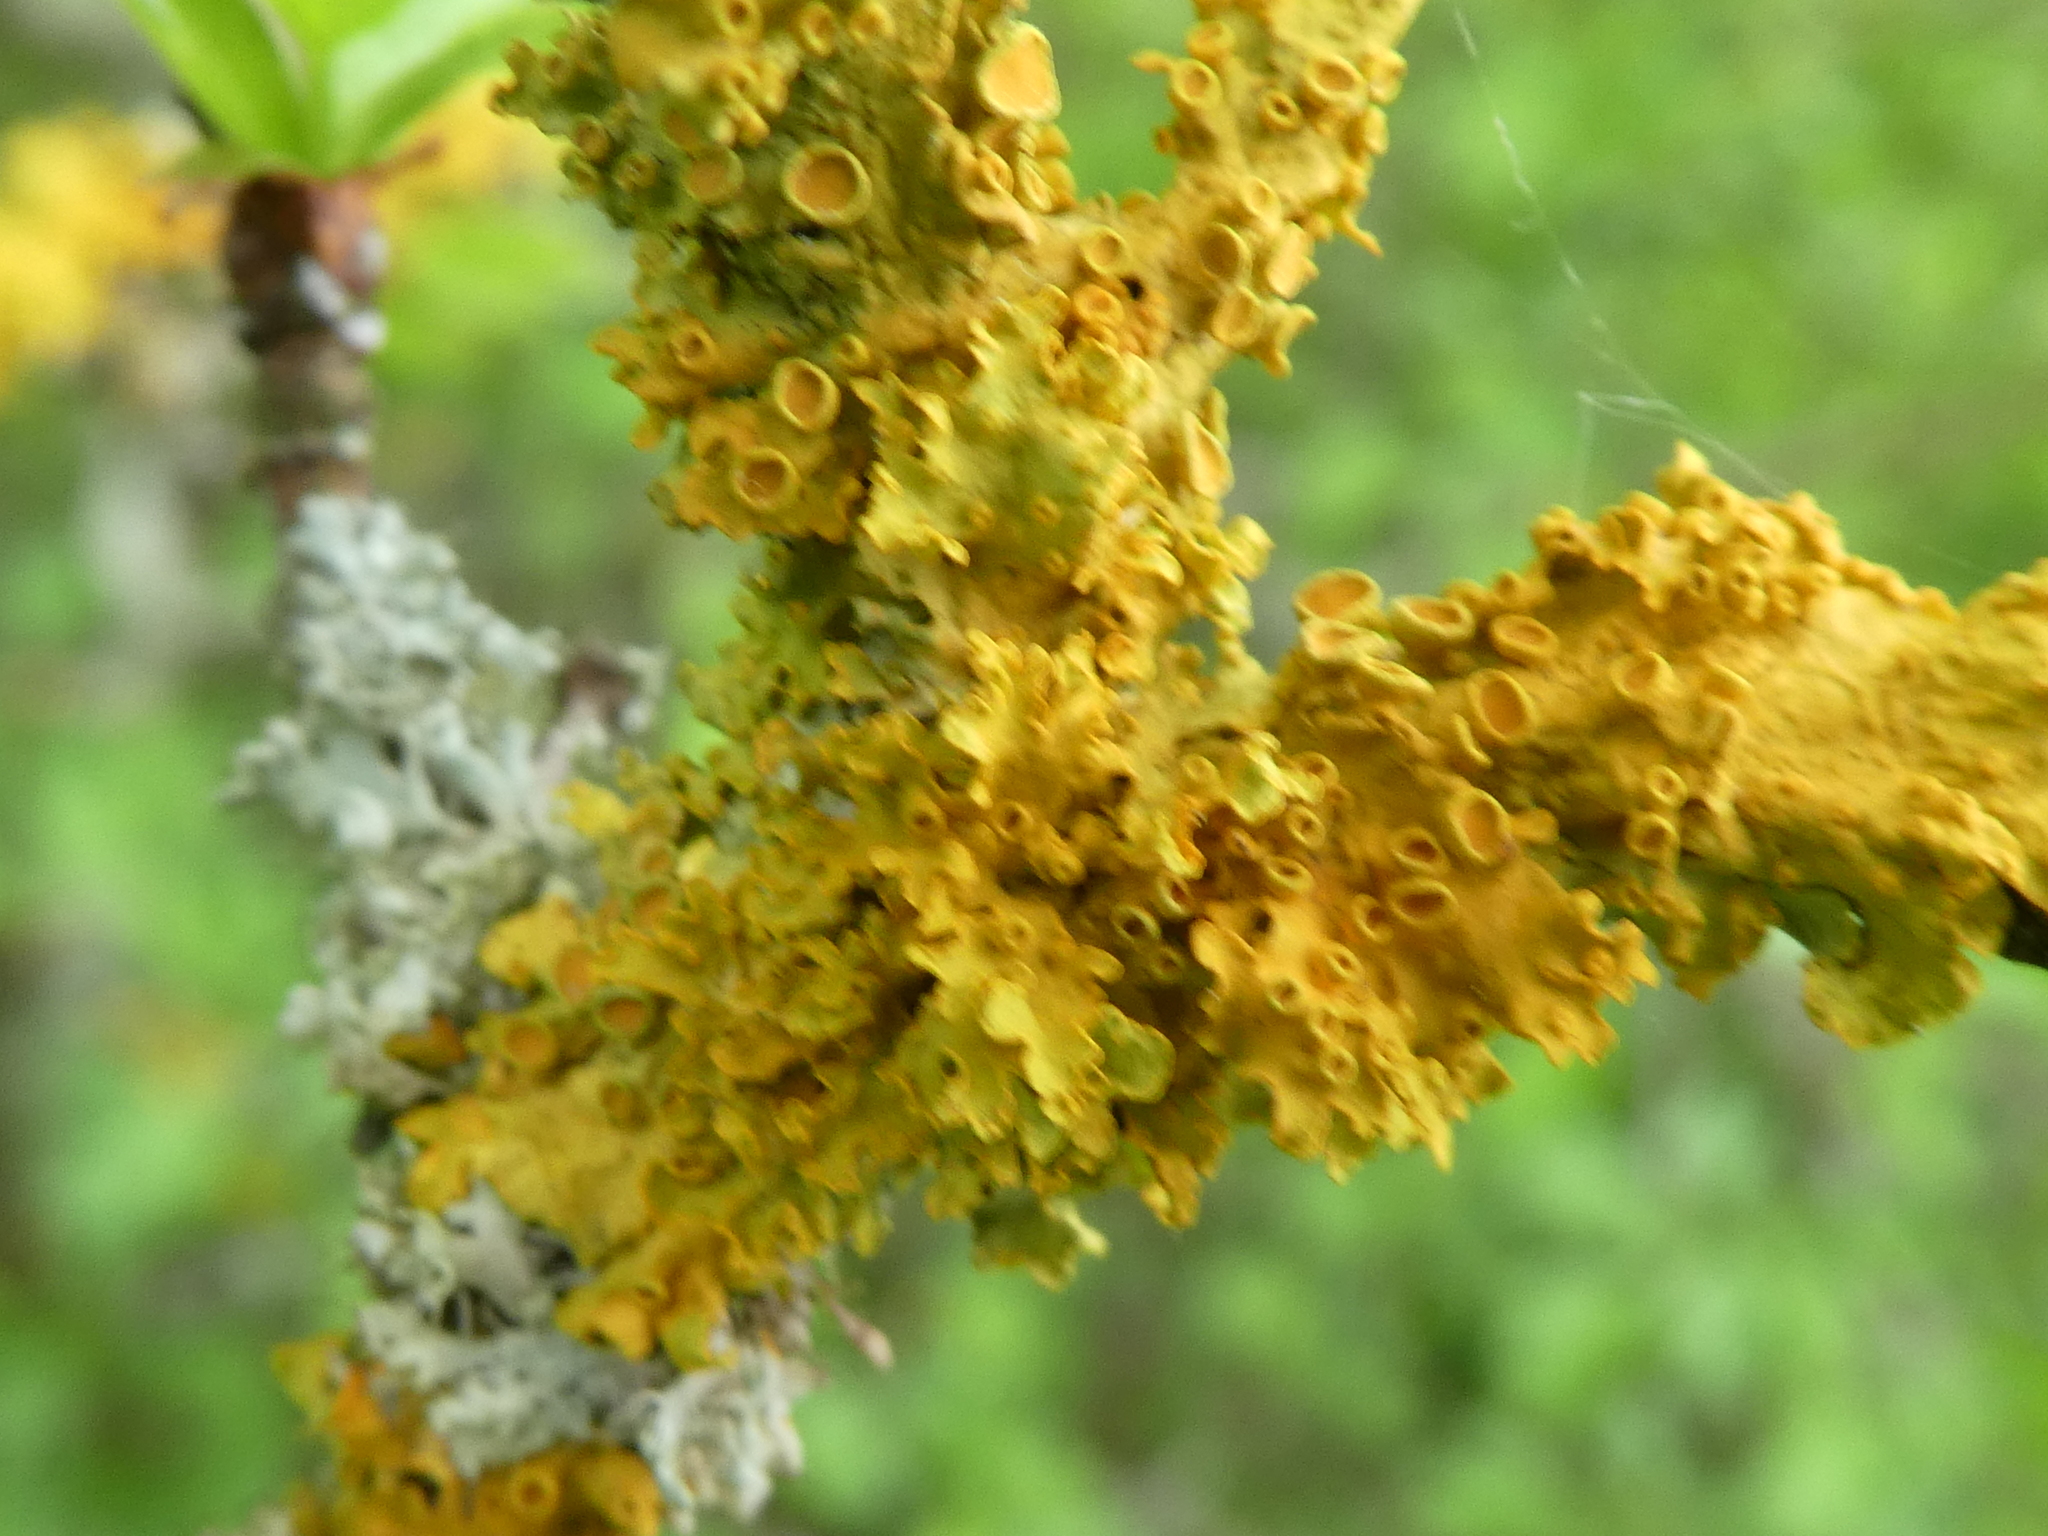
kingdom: Fungi
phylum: Ascomycota
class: Lecanoromycetes
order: Teloschistales
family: Teloschistaceae
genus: Xanthoria
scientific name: Xanthoria parietina
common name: Common orange lichen
